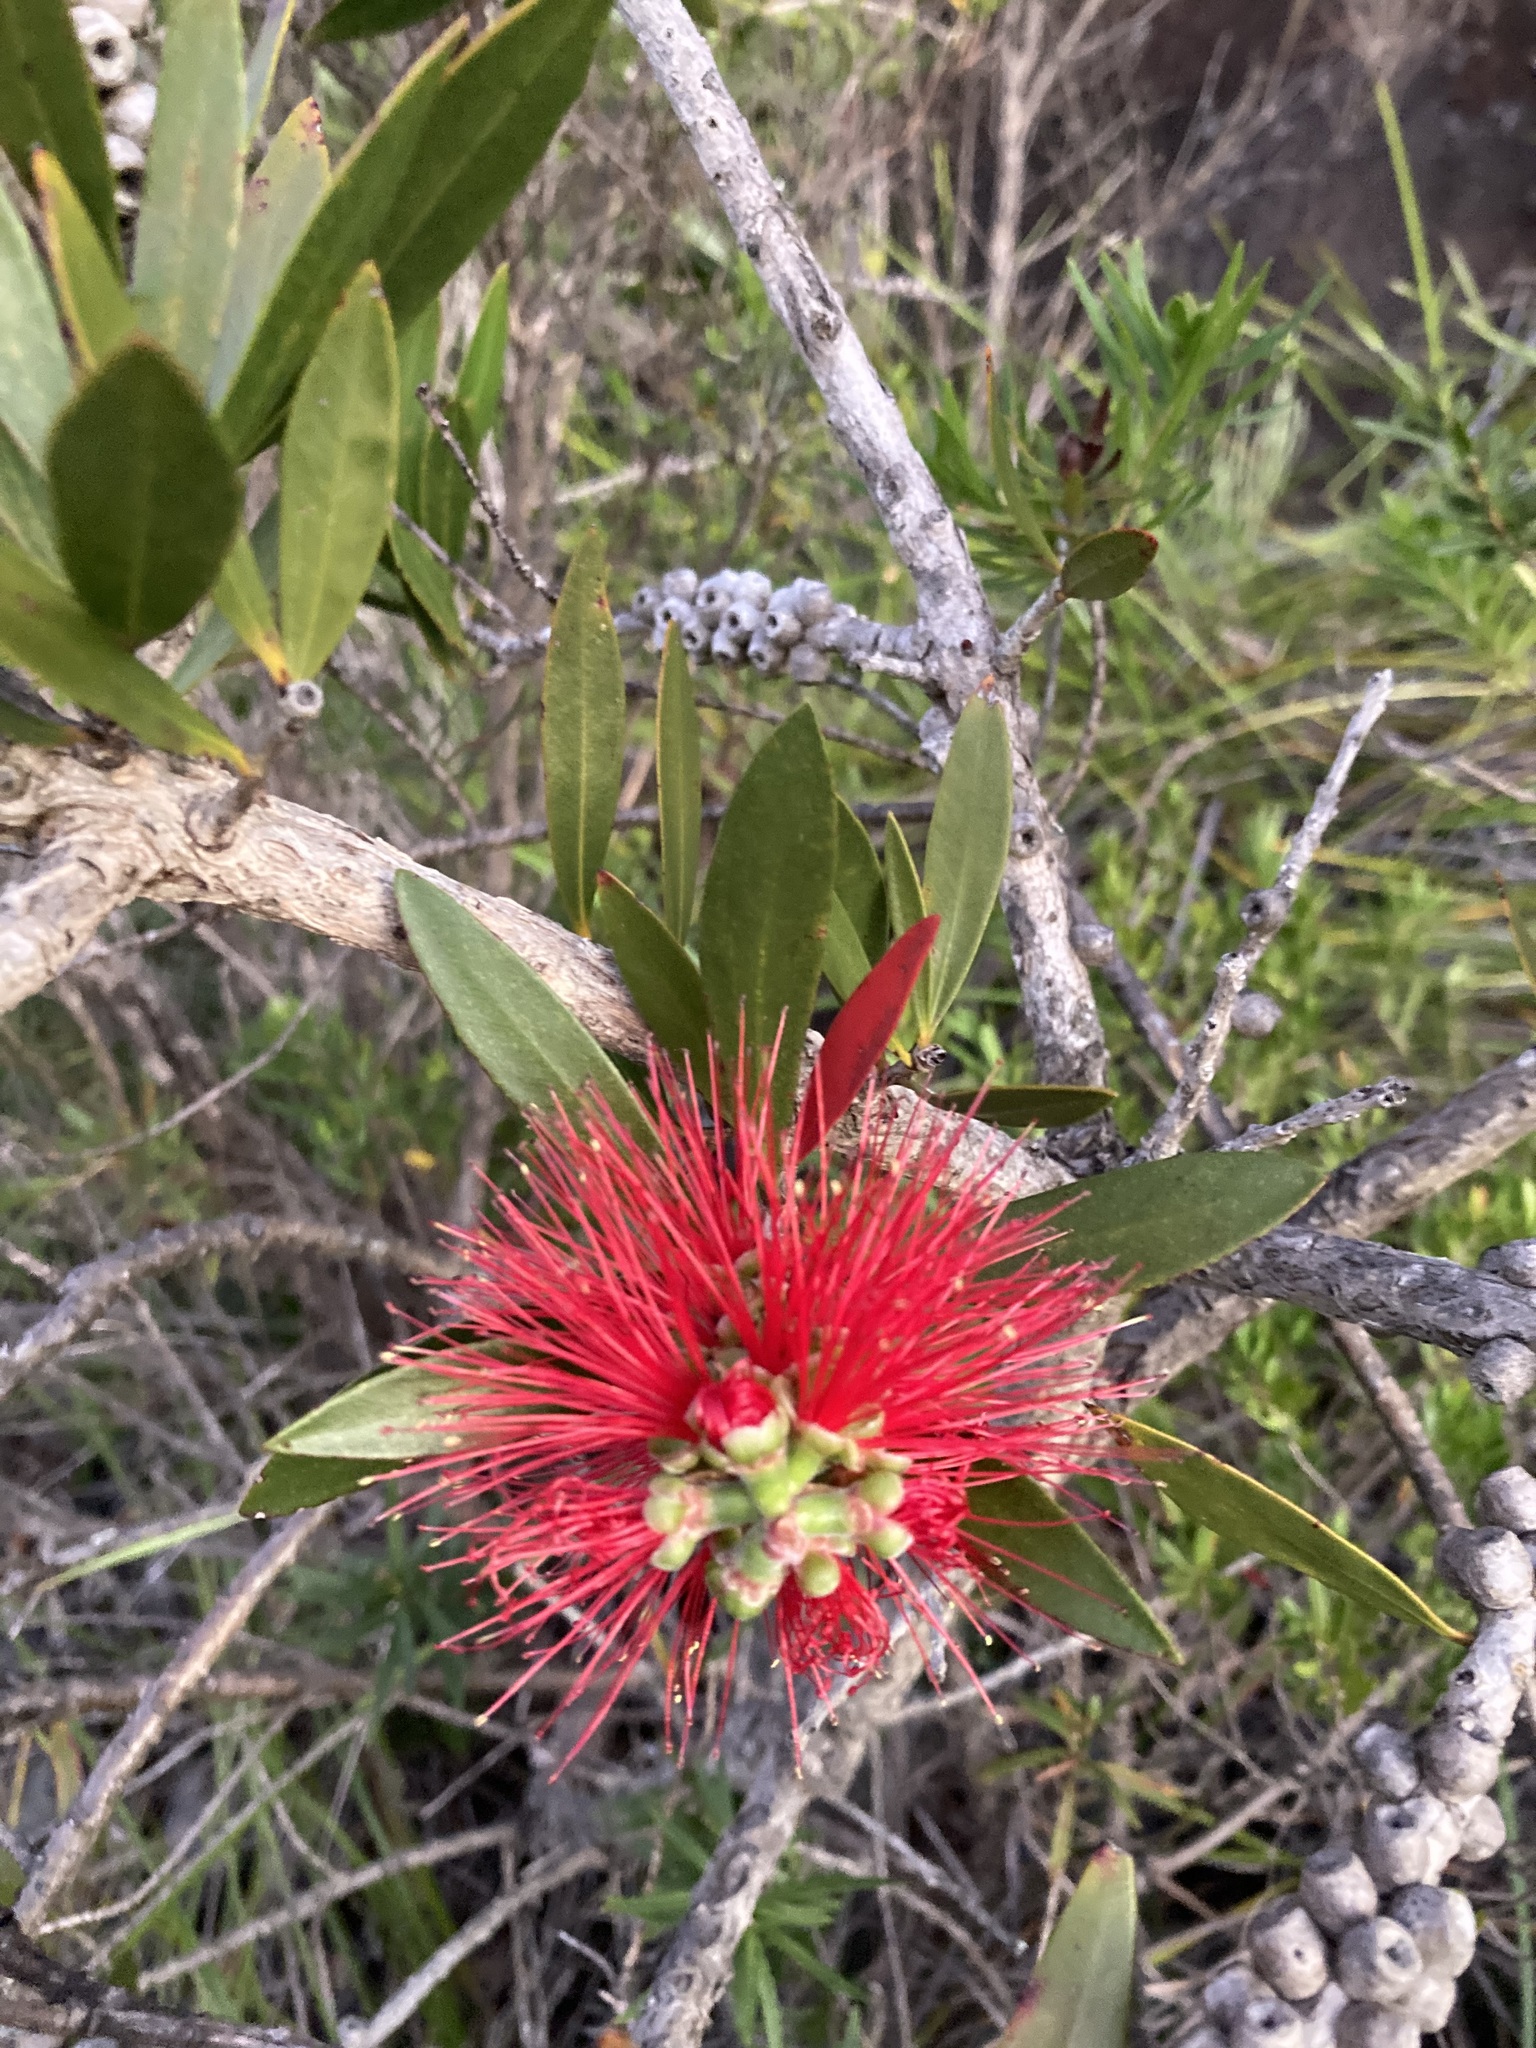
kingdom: Plantae
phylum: Tracheophyta
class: Magnoliopsida
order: Myrtales
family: Myrtaceae
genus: Callistemon
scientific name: Callistemon comboynensis
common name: Cliff bottlebrush
